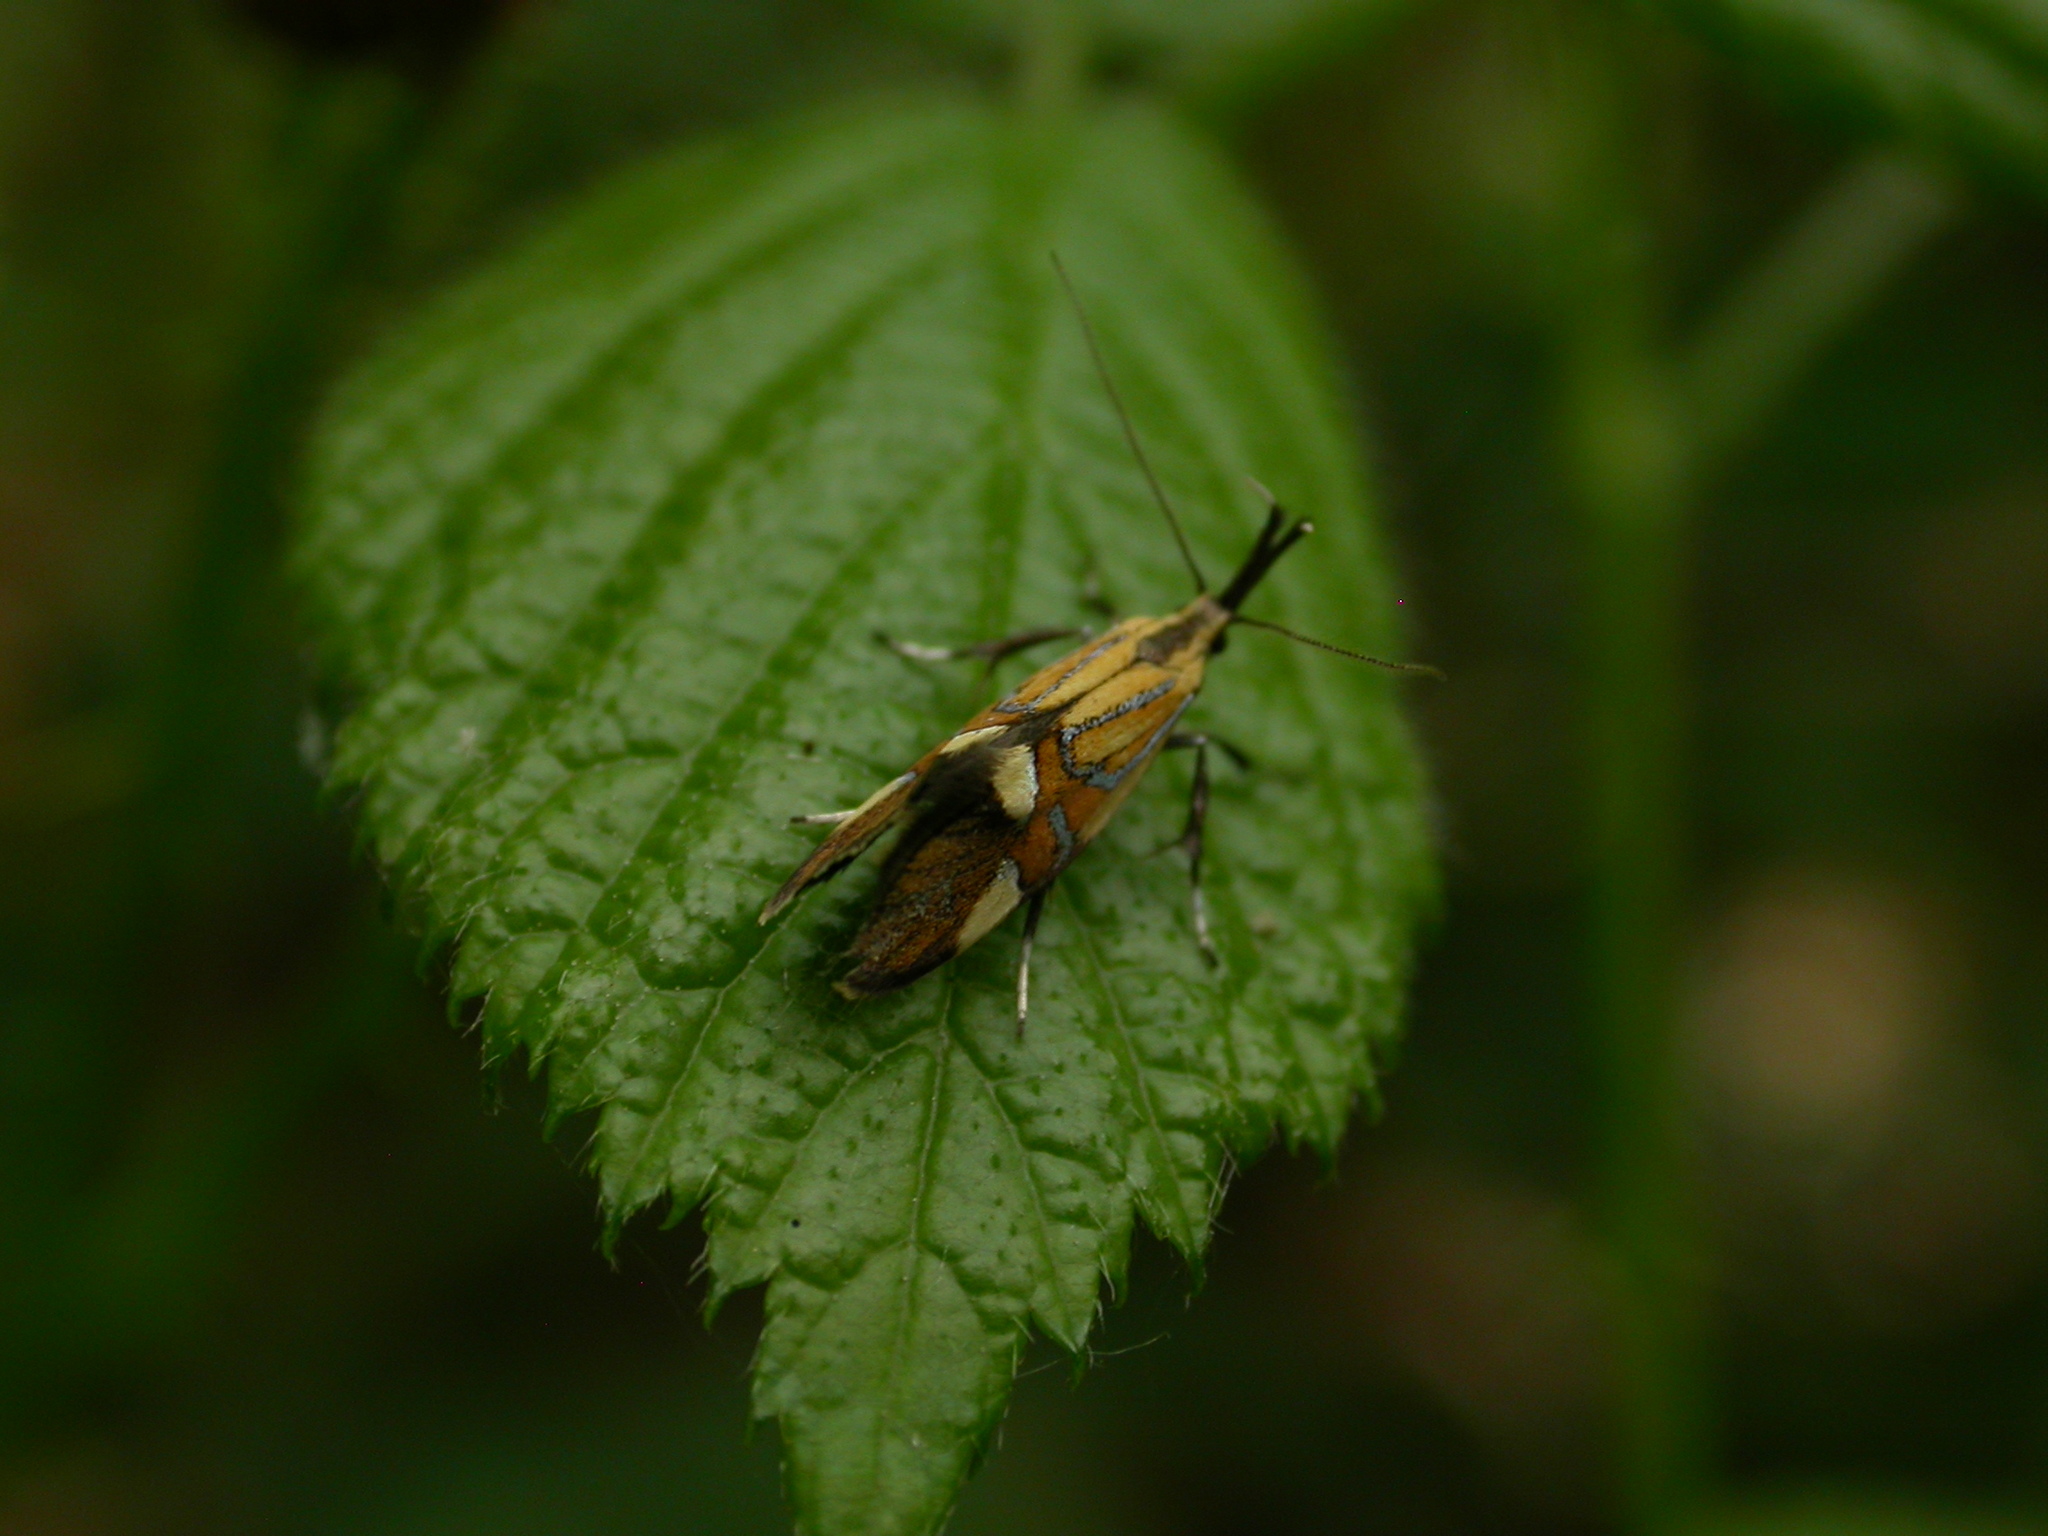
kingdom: Animalia
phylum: Arthropoda
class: Insecta
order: Lepidoptera
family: Oecophoridae
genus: Oecophora
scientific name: Oecophora Alabonia geoffrella
